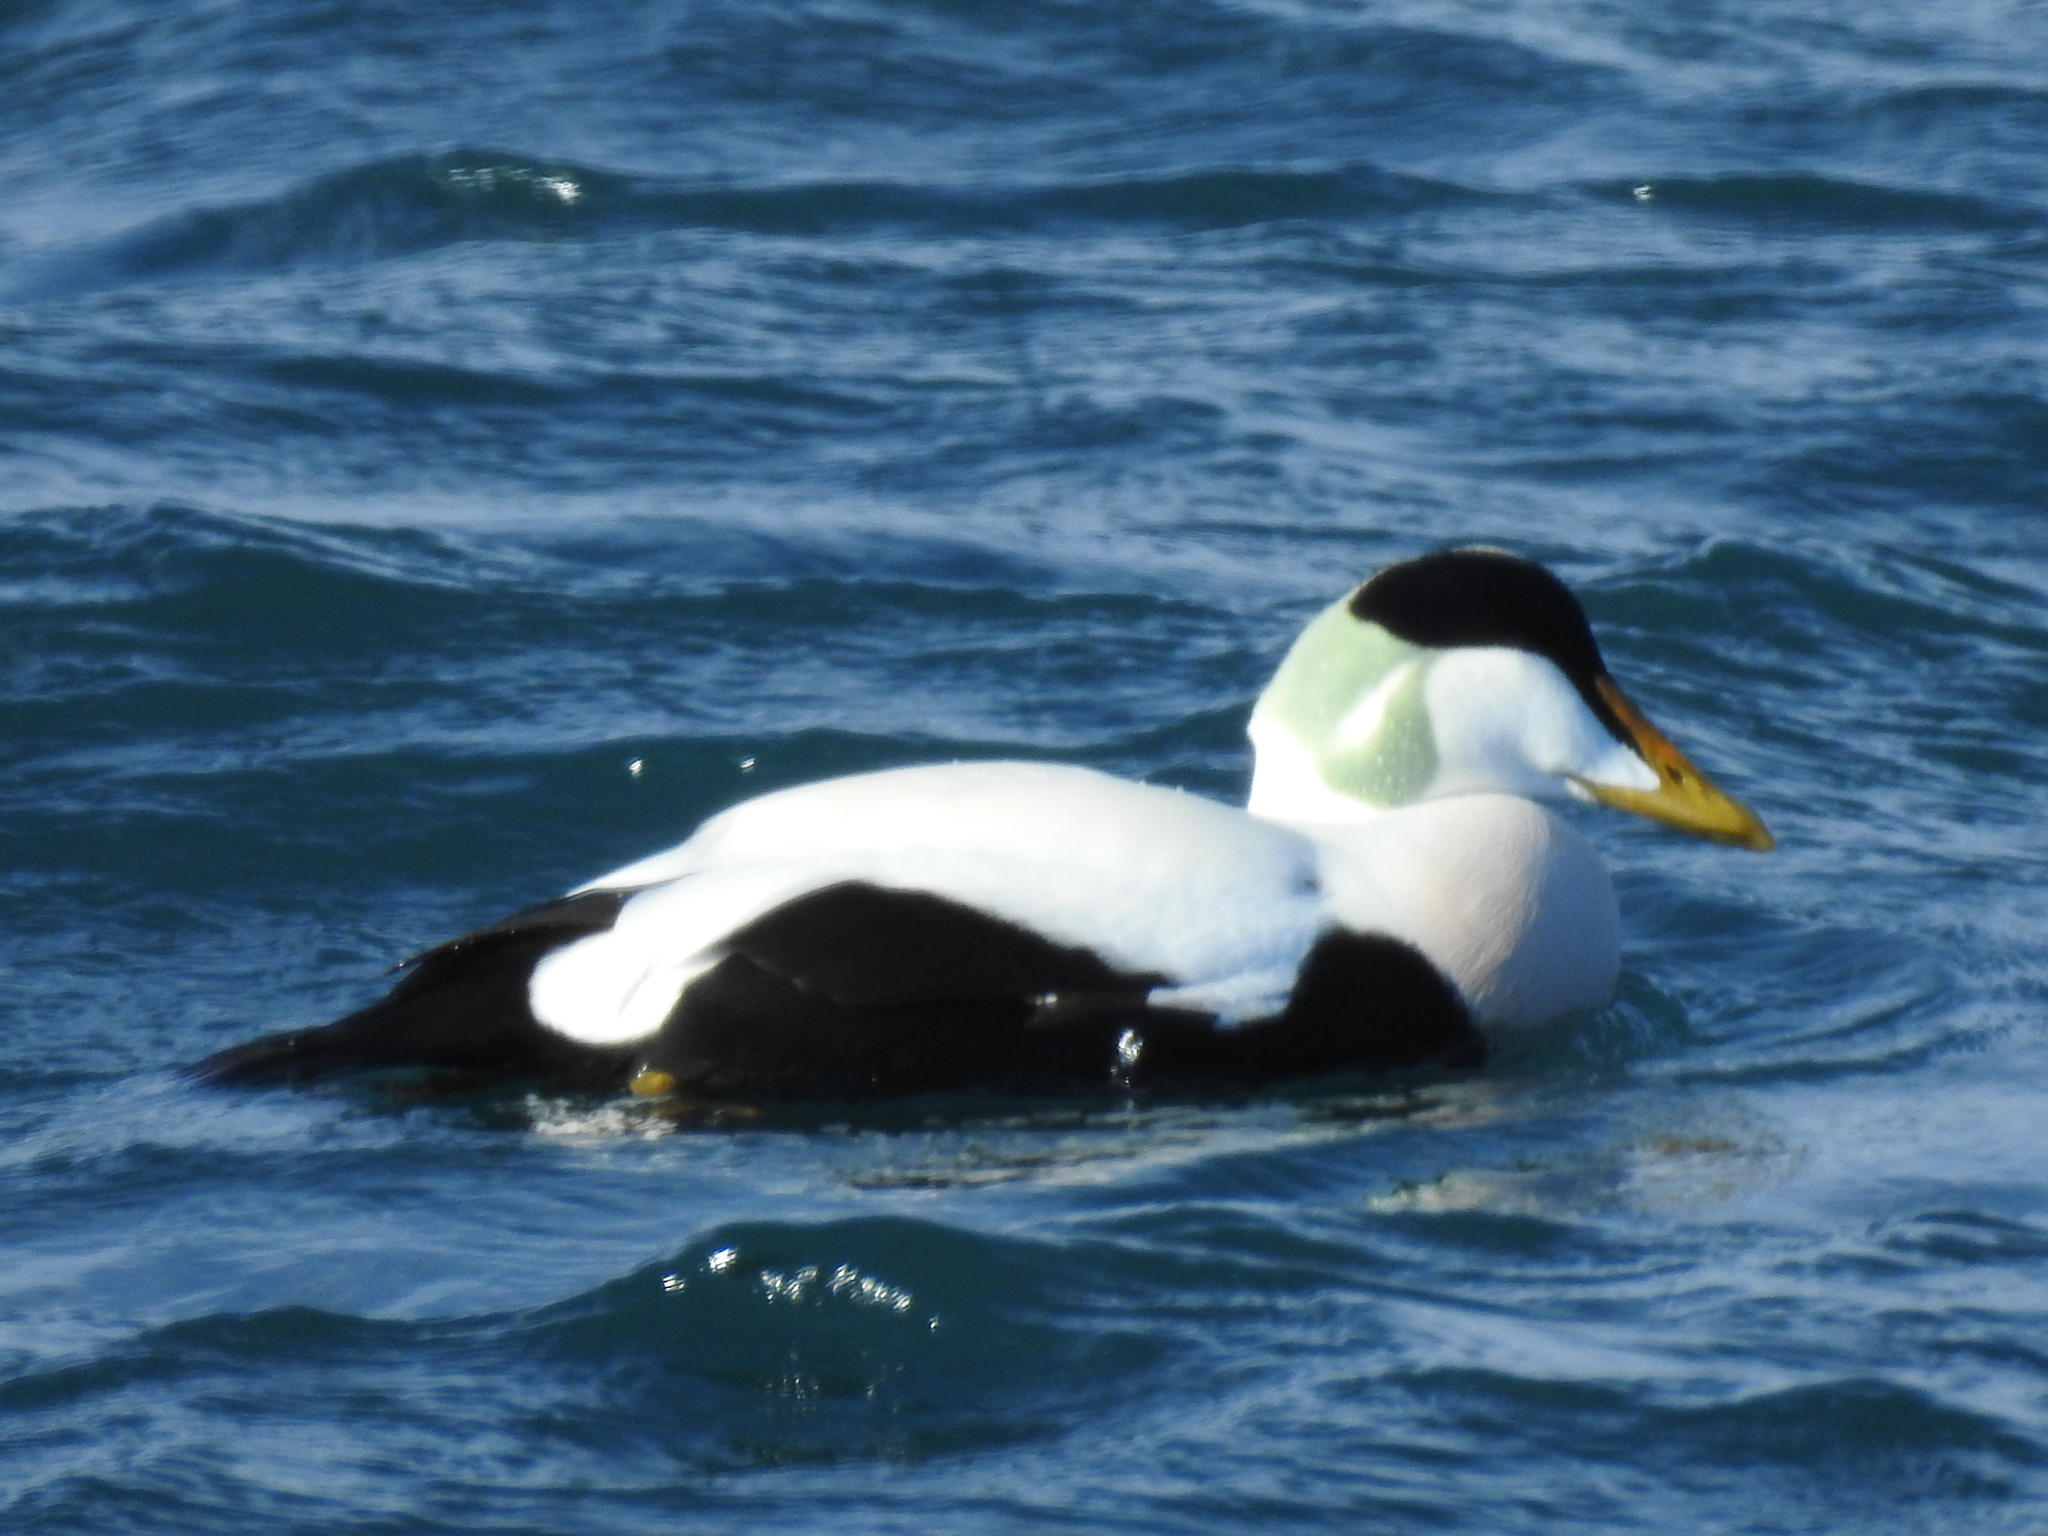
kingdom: Animalia
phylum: Chordata
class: Aves
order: Anseriformes
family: Anatidae
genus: Somateria
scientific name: Somateria mollissima
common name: Common eider
